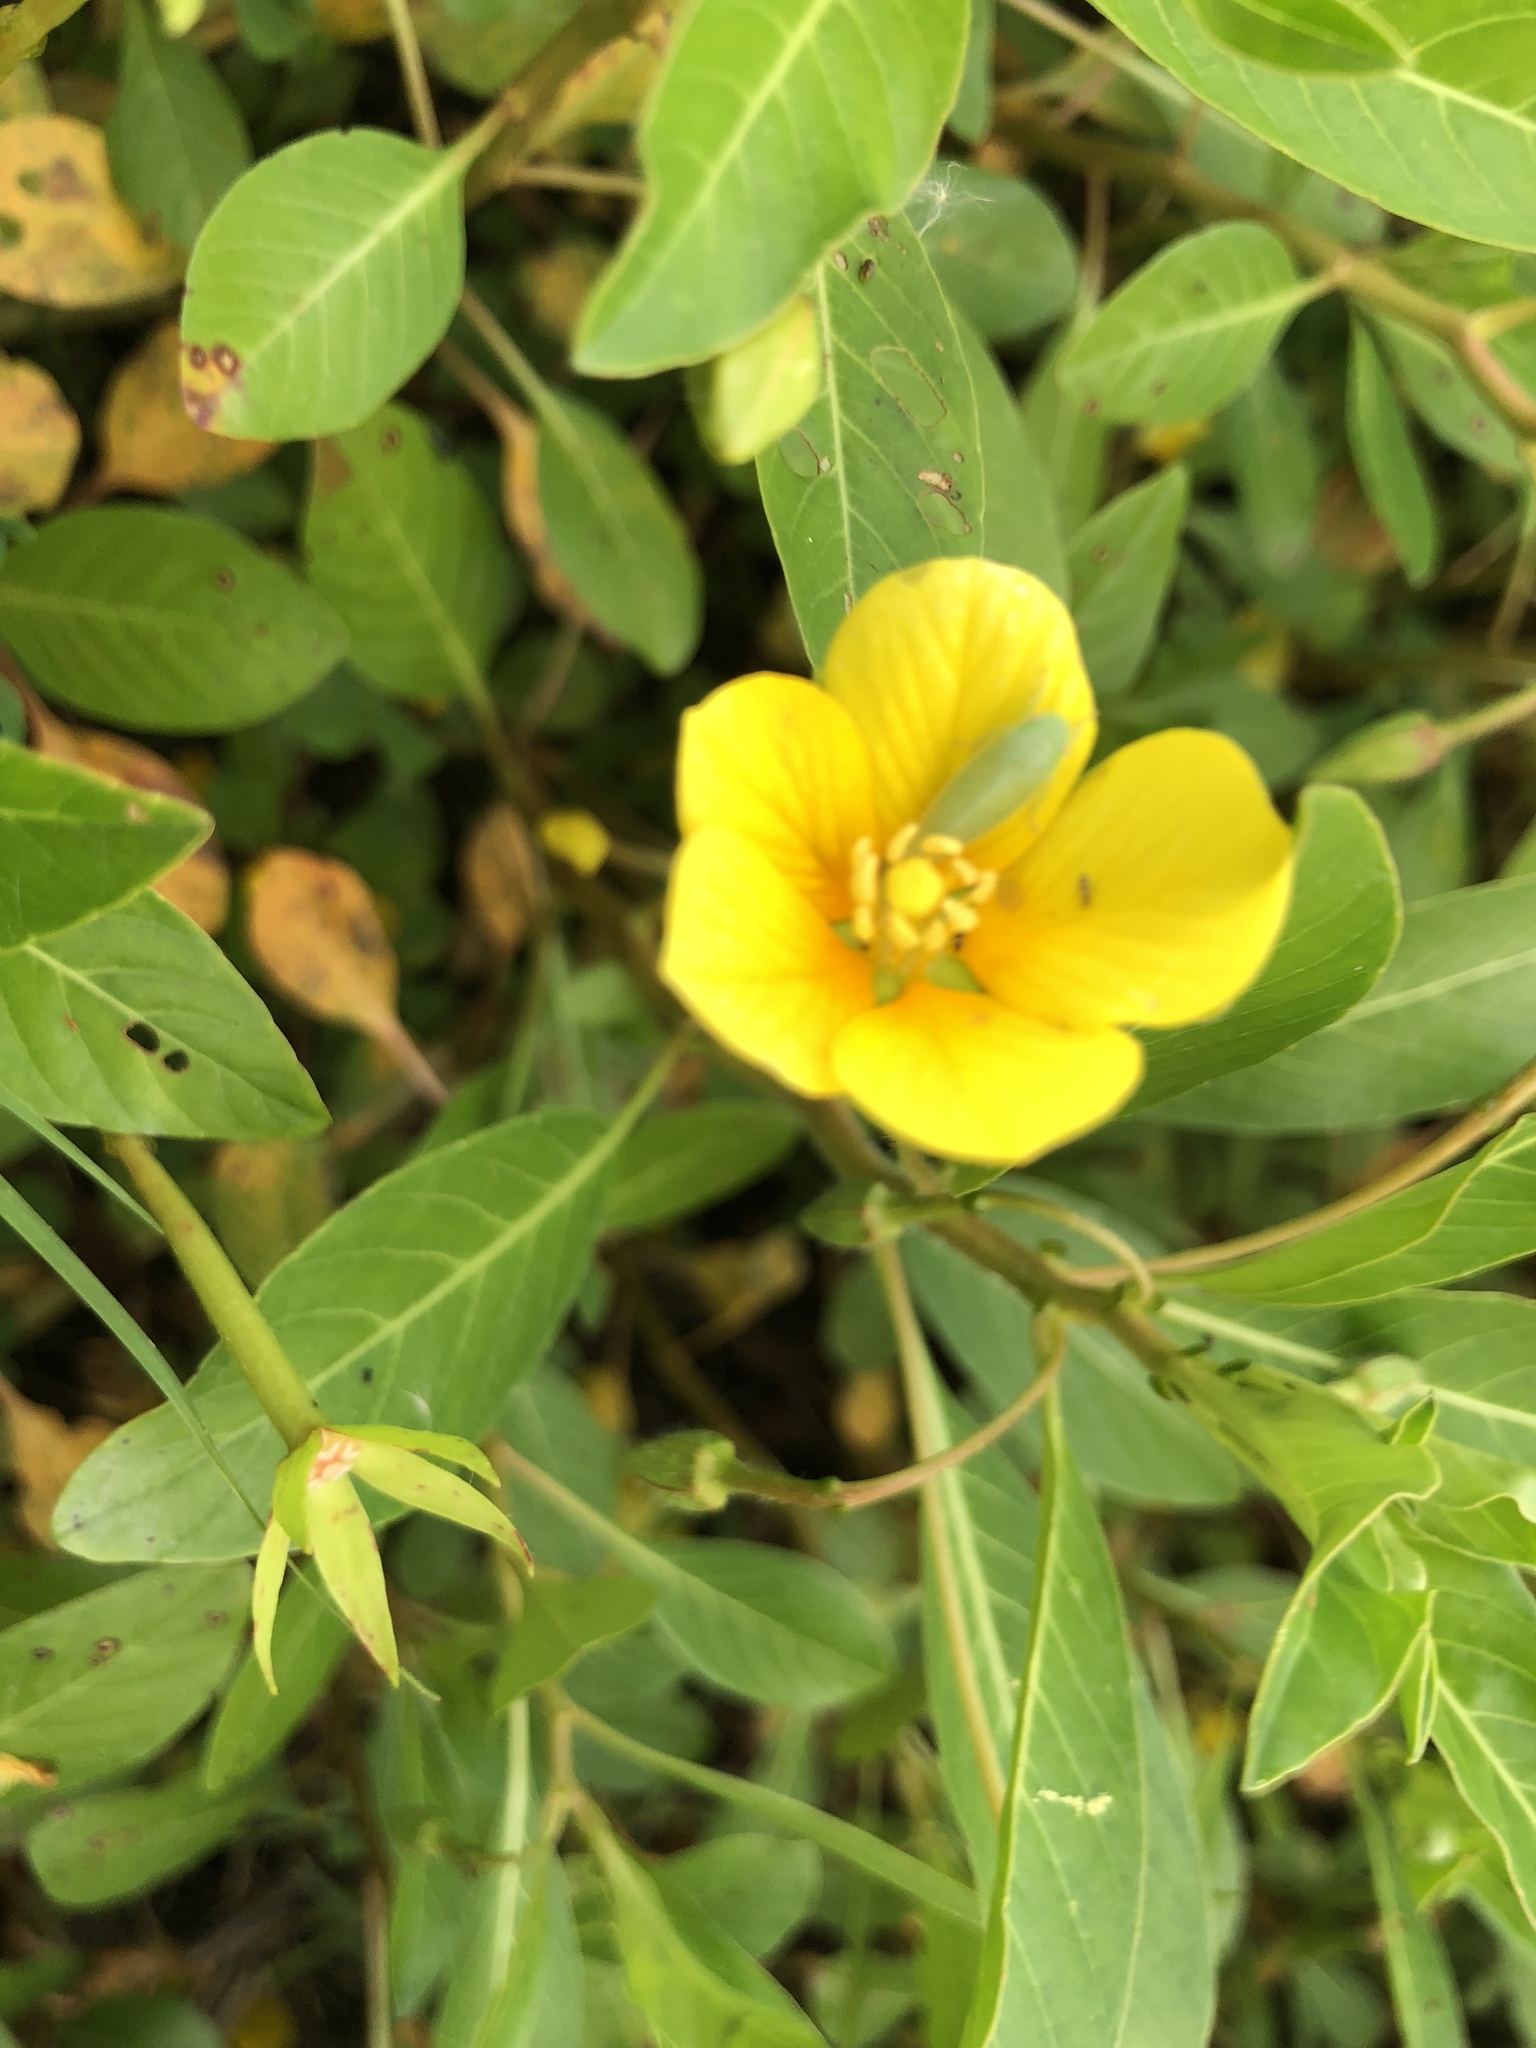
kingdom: Plantae
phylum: Tracheophyta
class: Magnoliopsida
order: Myrtales
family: Onagraceae
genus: Ludwigia
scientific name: Ludwigia peploides
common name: Floating primrose-willow
